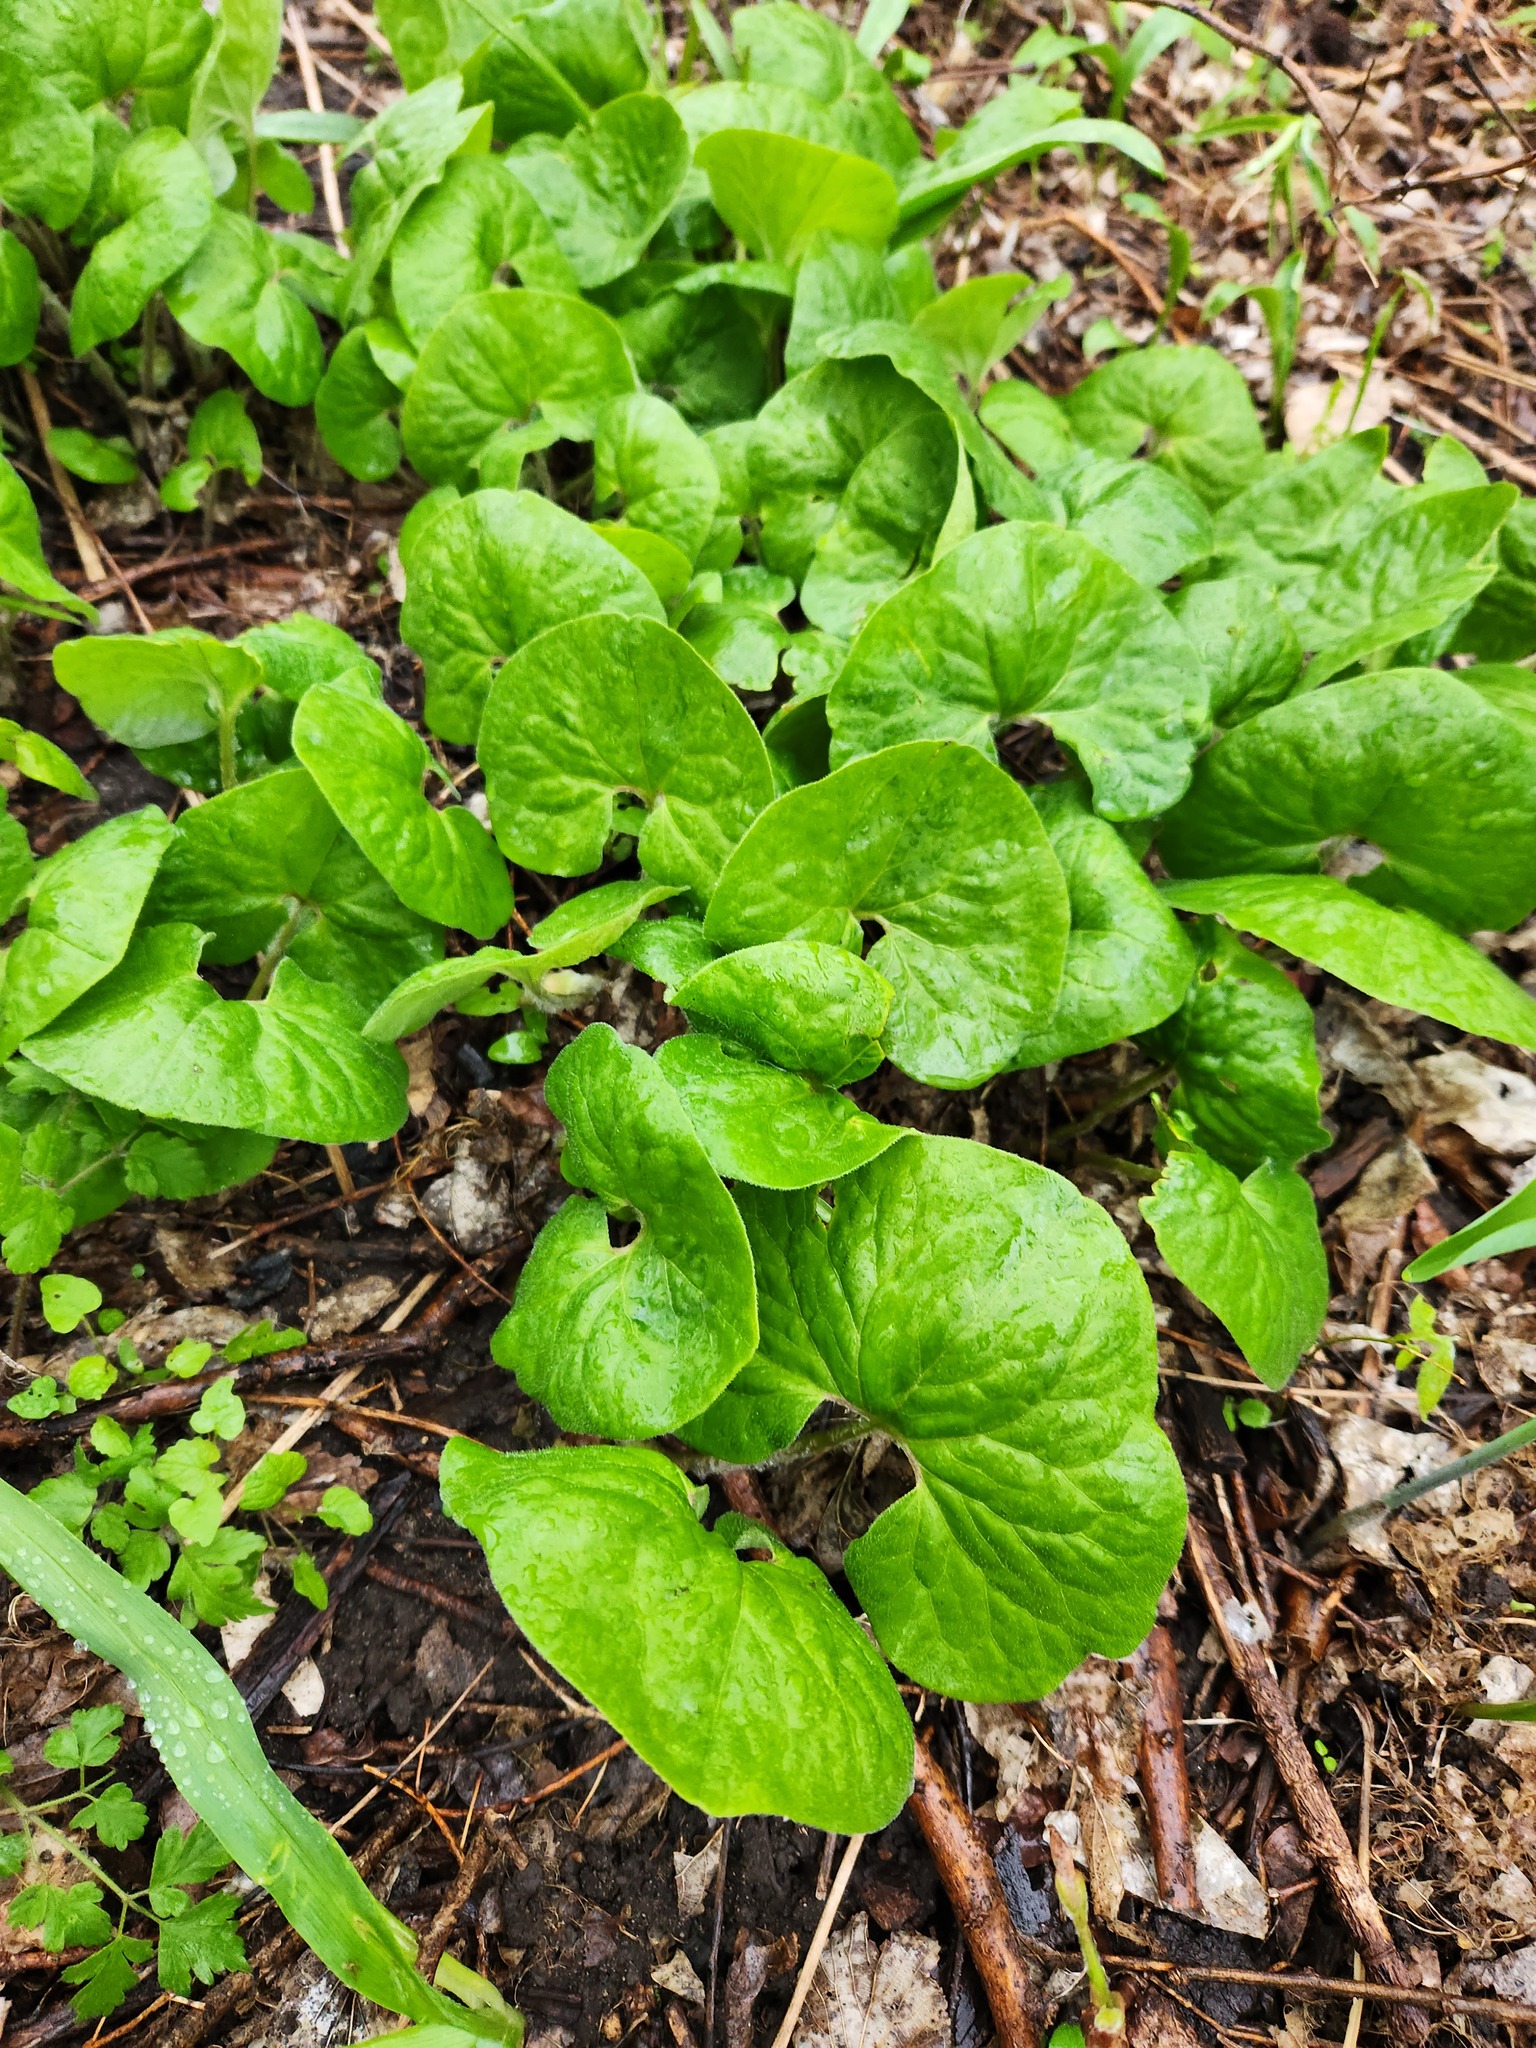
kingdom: Plantae
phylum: Tracheophyta
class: Magnoliopsida
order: Piperales
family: Aristolochiaceae
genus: Asarum
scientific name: Asarum canadense
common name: Wild ginger
